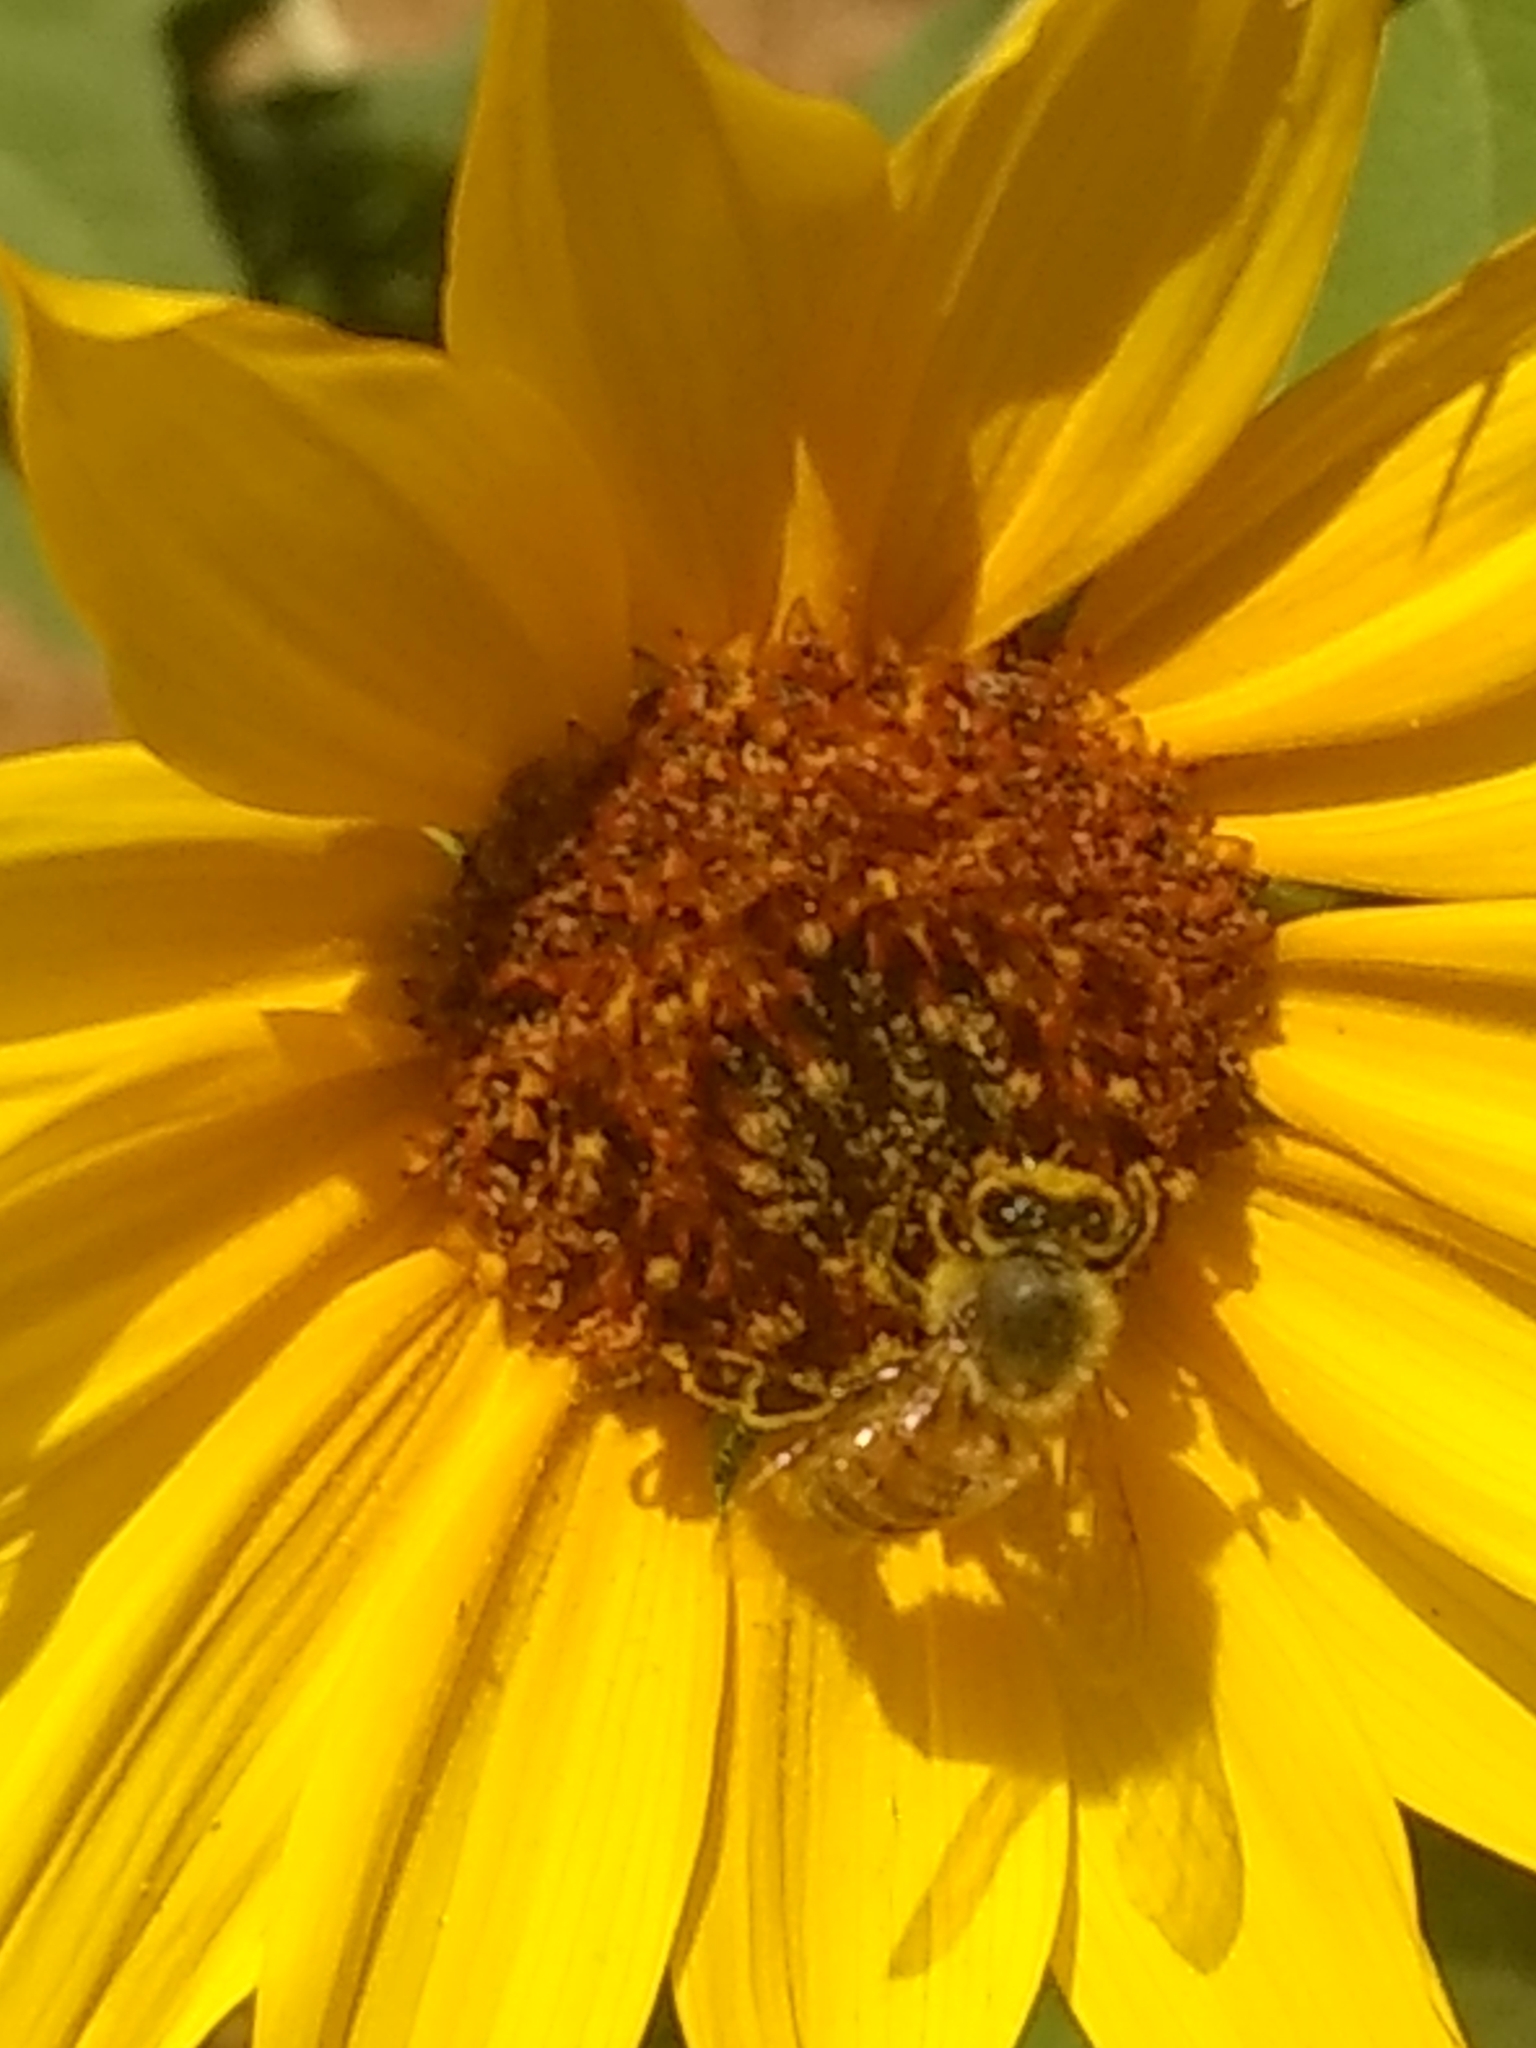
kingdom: Animalia
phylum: Arthropoda
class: Insecta
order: Hymenoptera
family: Apidae
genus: Apis
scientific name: Apis mellifera
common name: Honey bee
